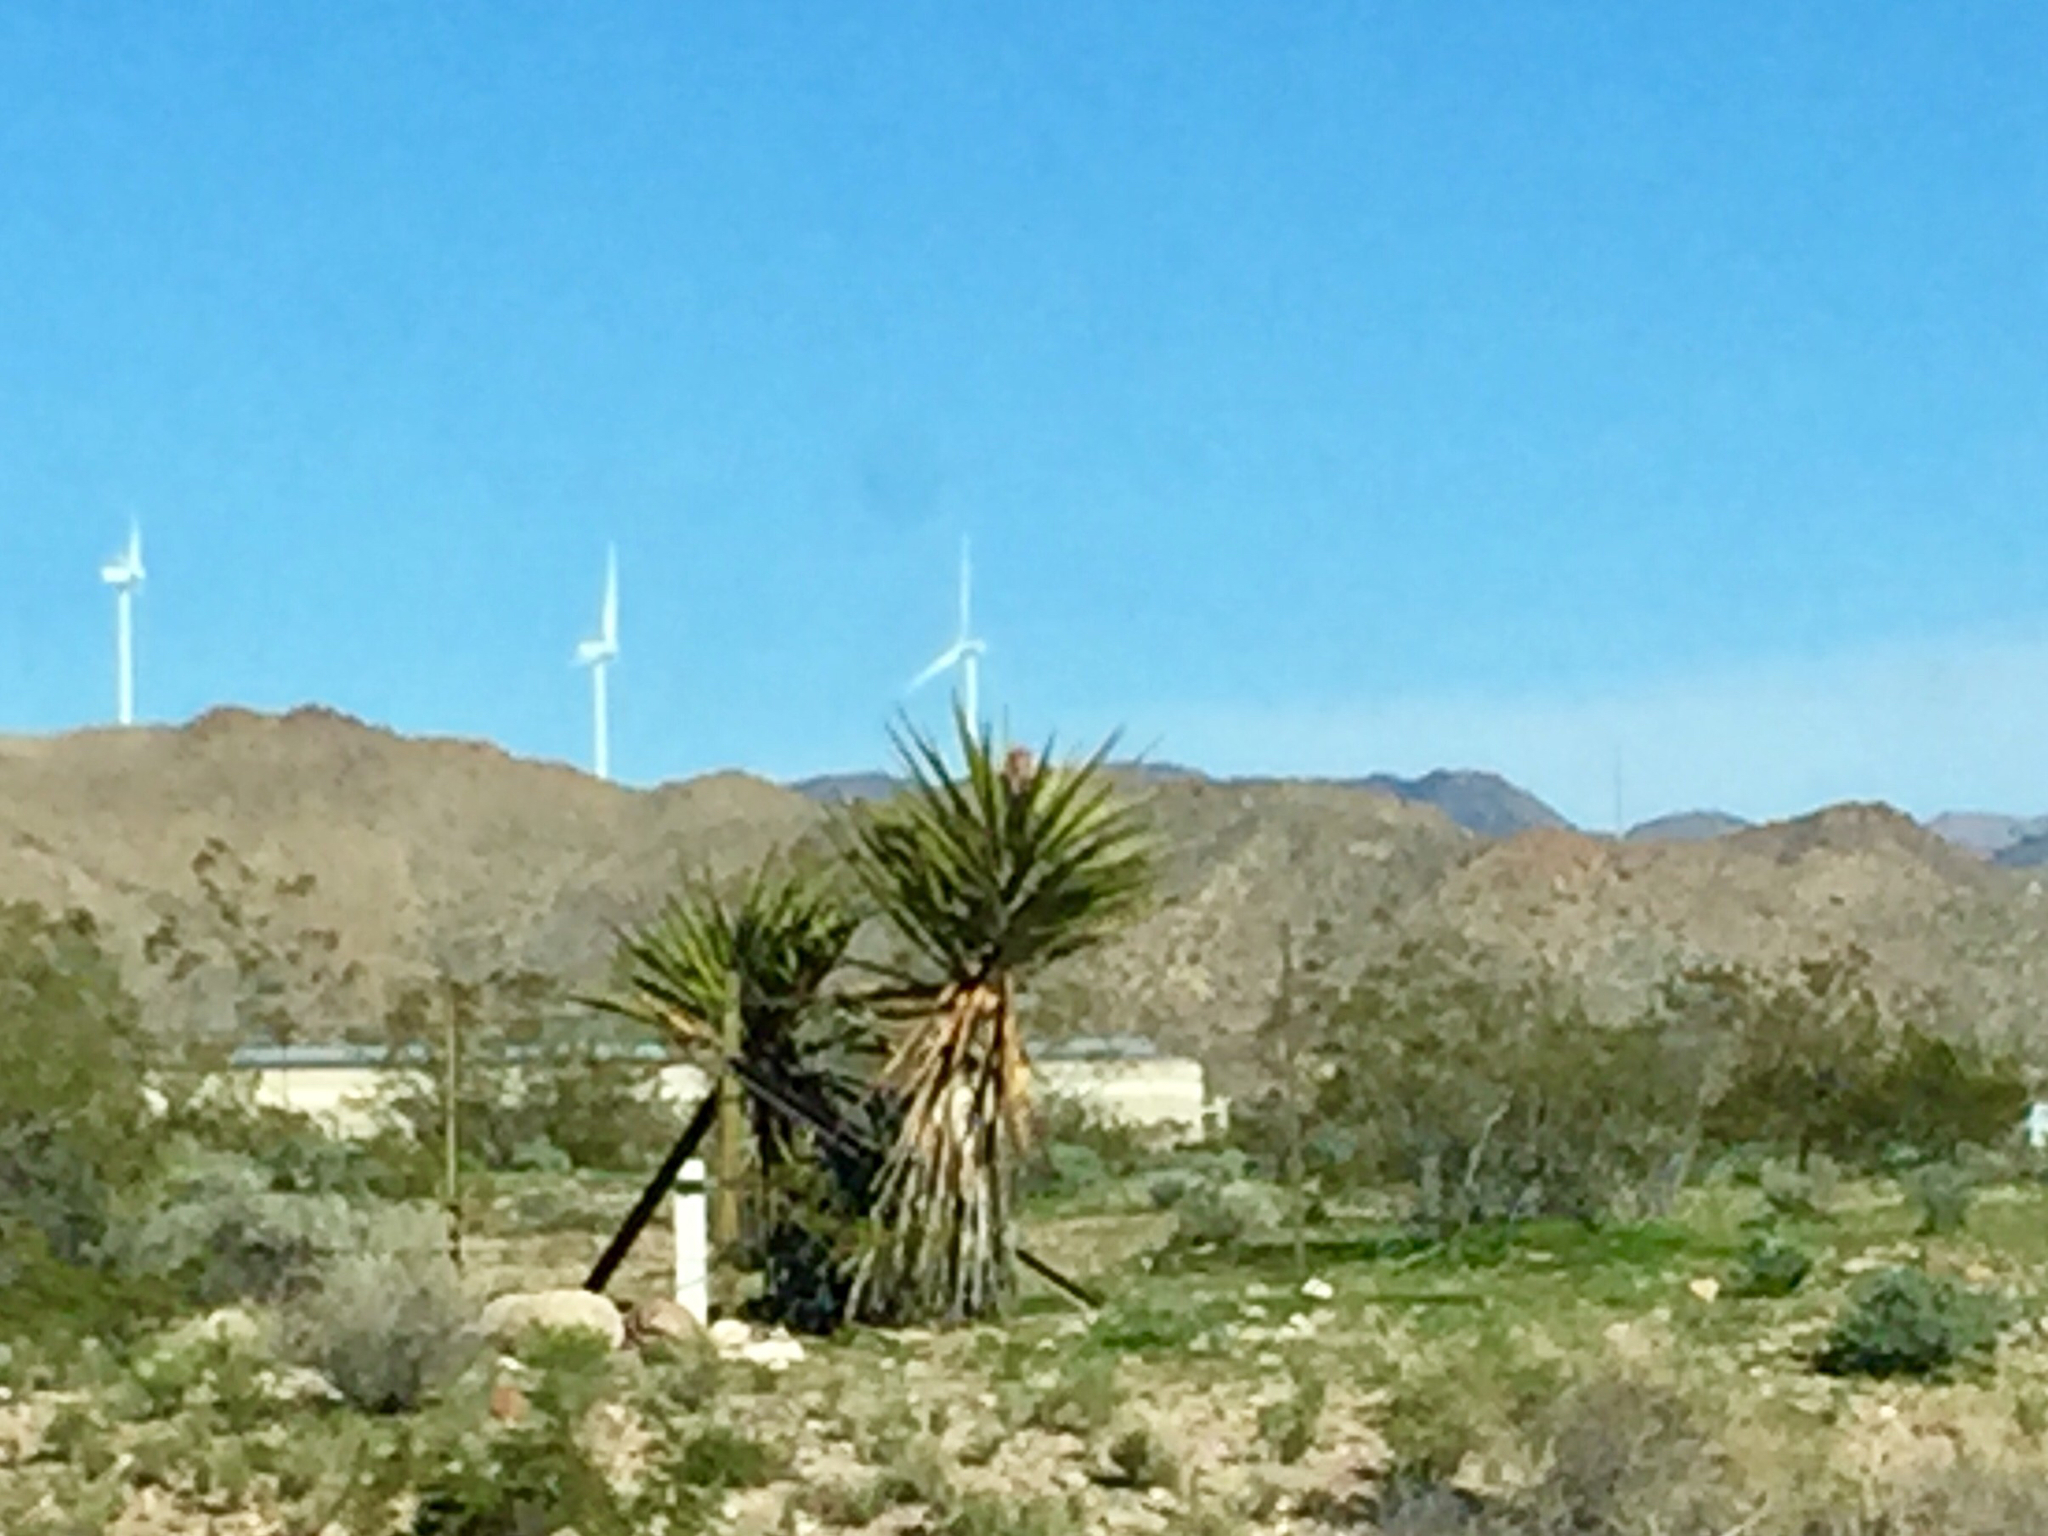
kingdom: Plantae
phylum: Tracheophyta
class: Liliopsida
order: Asparagales
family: Asparagaceae
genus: Yucca
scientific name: Yucca schidigera
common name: Mojave yucca
